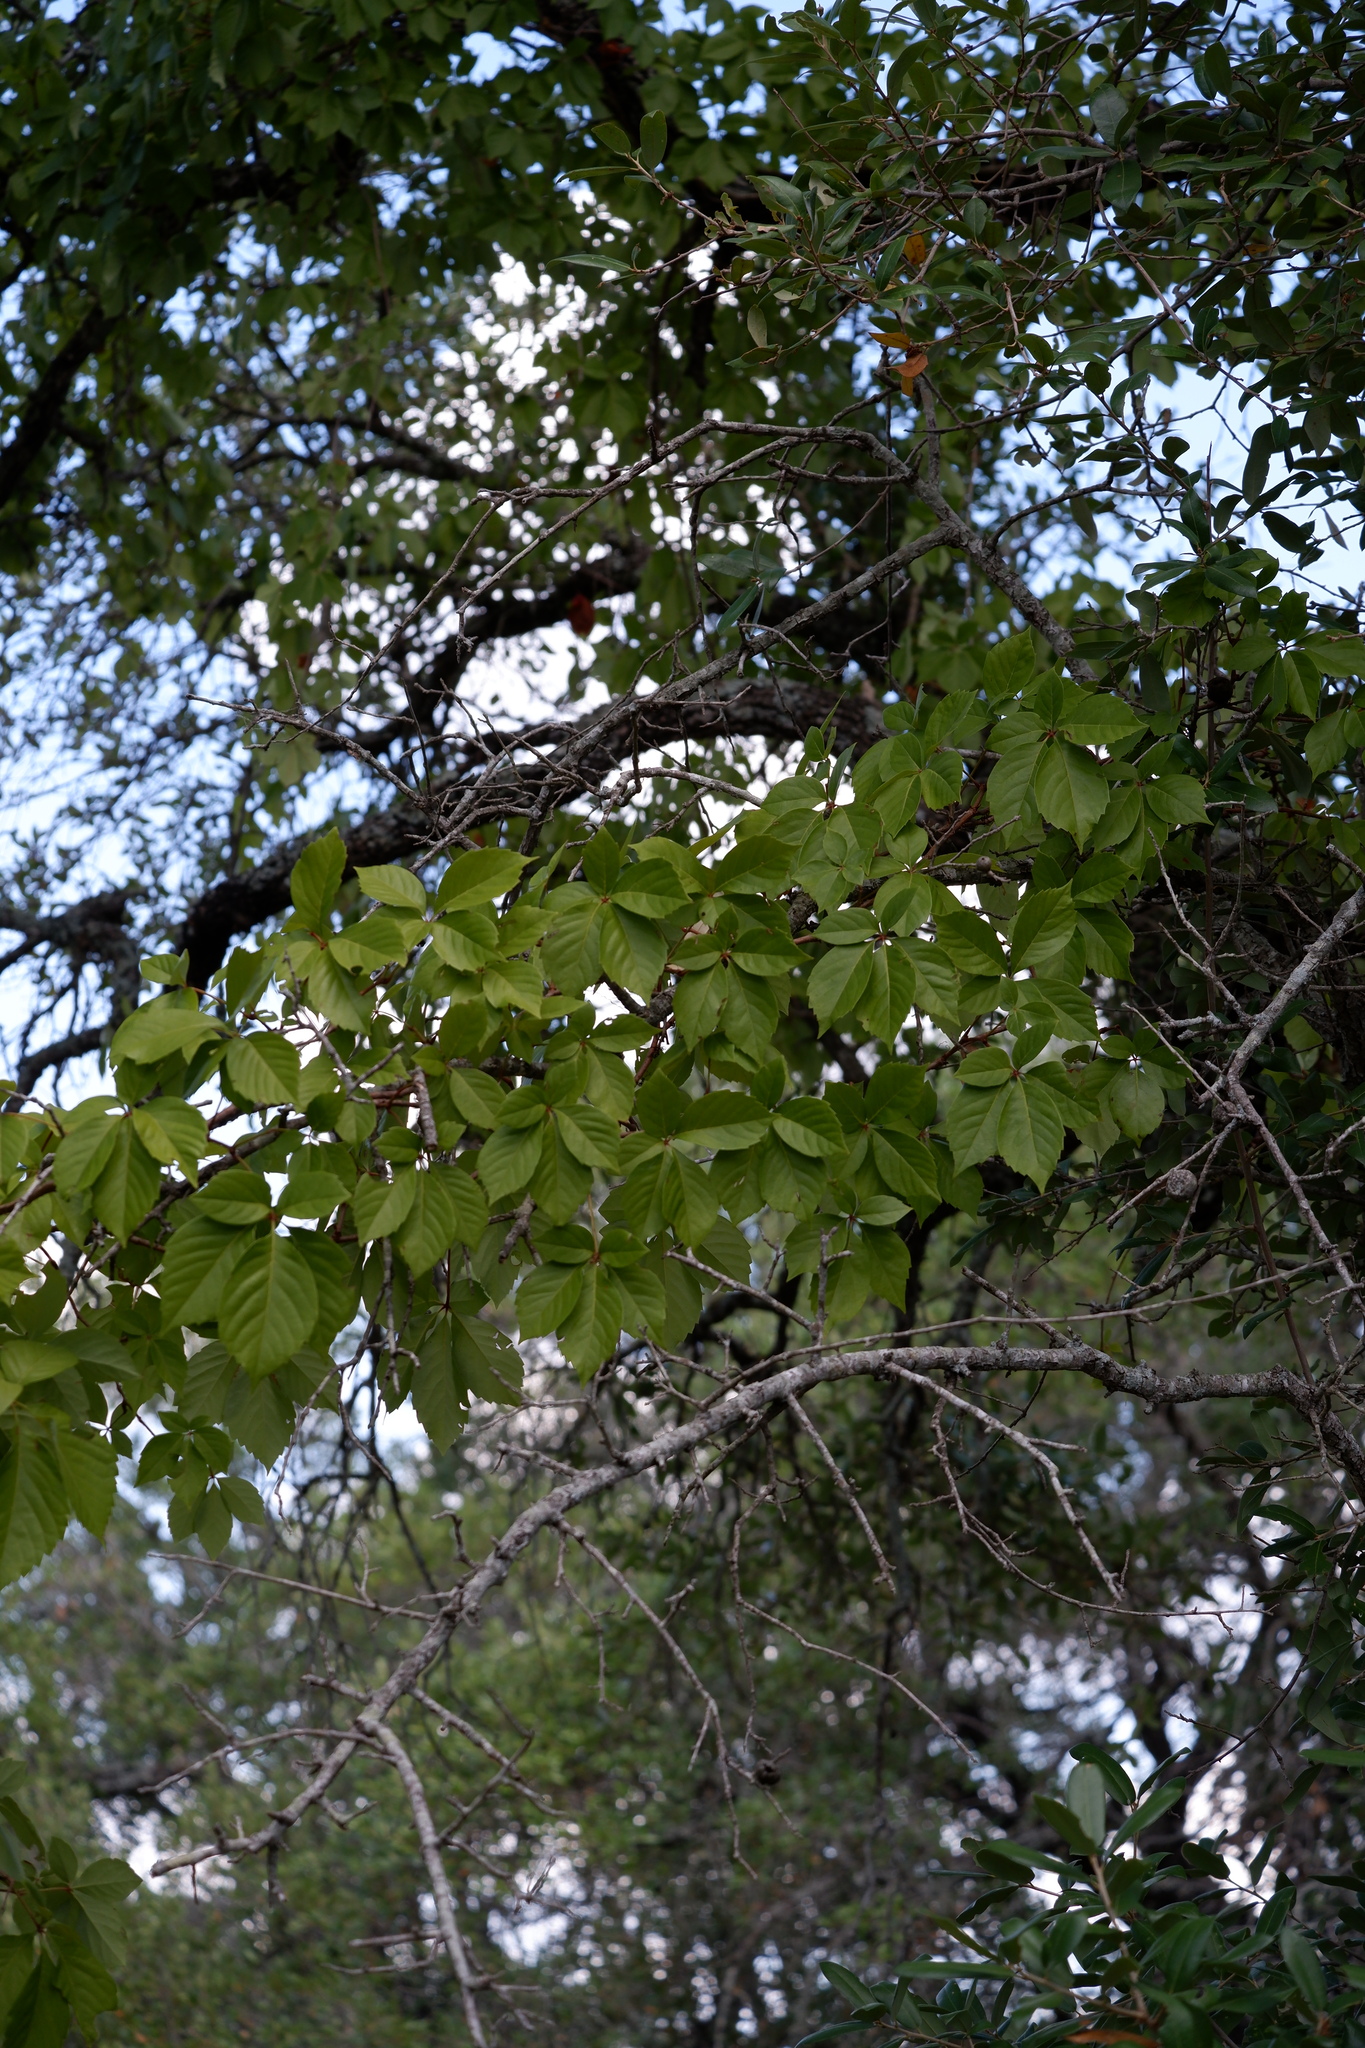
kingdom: Plantae
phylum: Tracheophyta
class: Magnoliopsida
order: Vitales
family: Vitaceae
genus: Parthenocissus
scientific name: Parthenocissus quinquefolia
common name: Virginia-creeper
